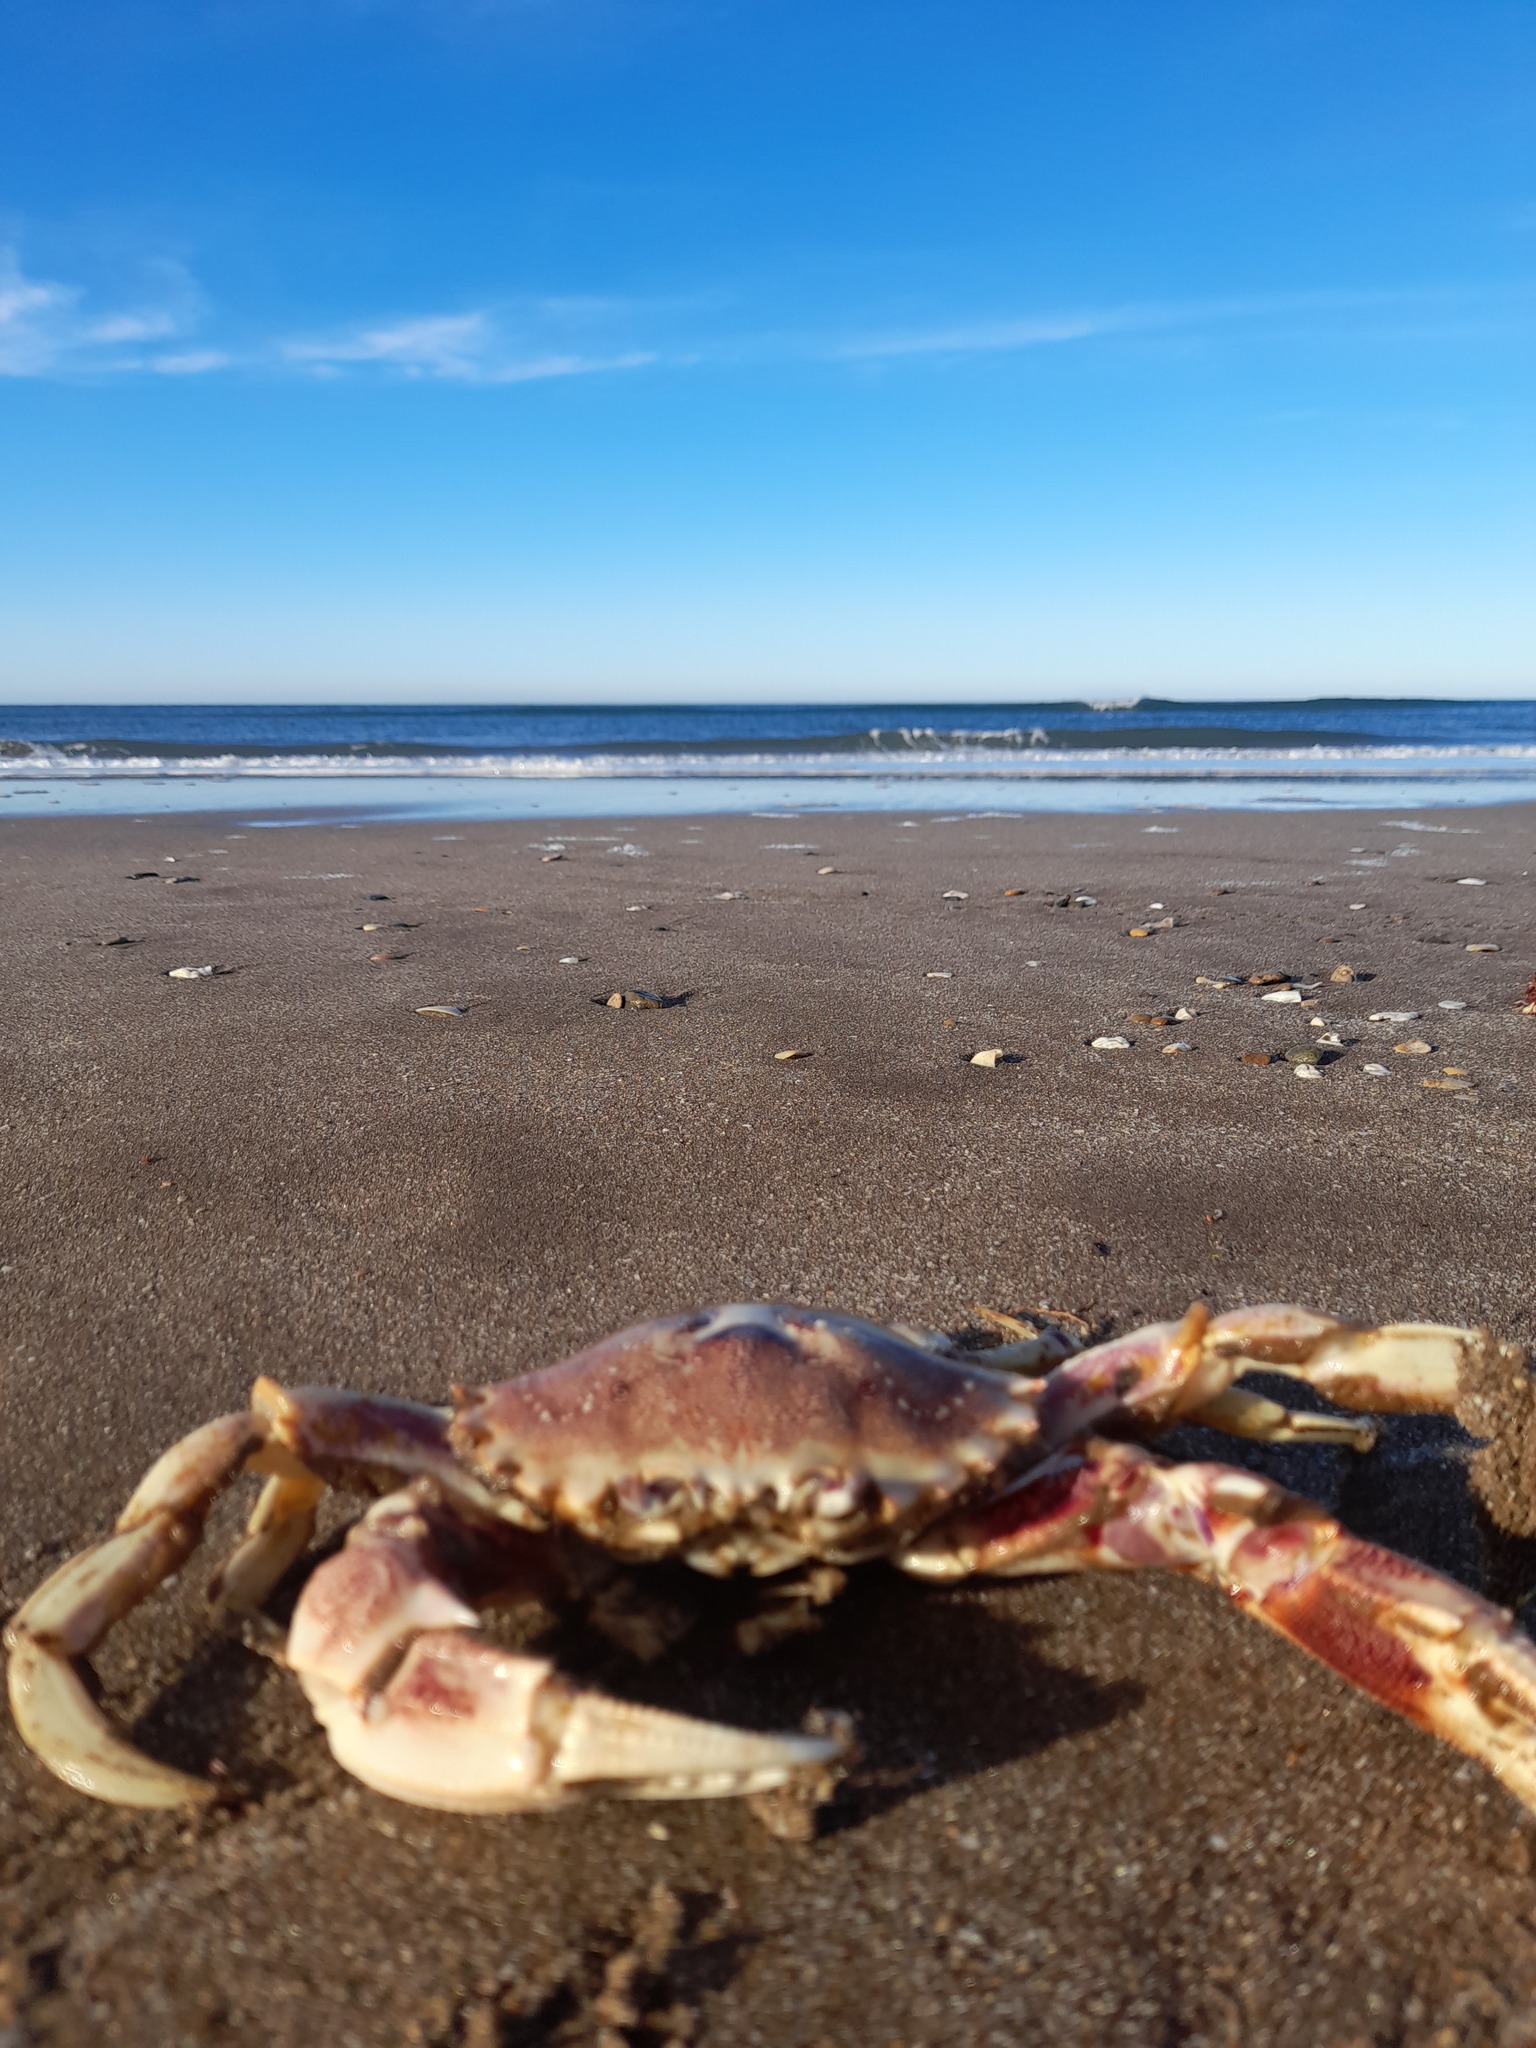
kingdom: Animalia
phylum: Arthropoda
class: Malacostraca
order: Decapoda
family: Ovalipidae
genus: Ovalipes
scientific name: Ovalipes trimaculatus
